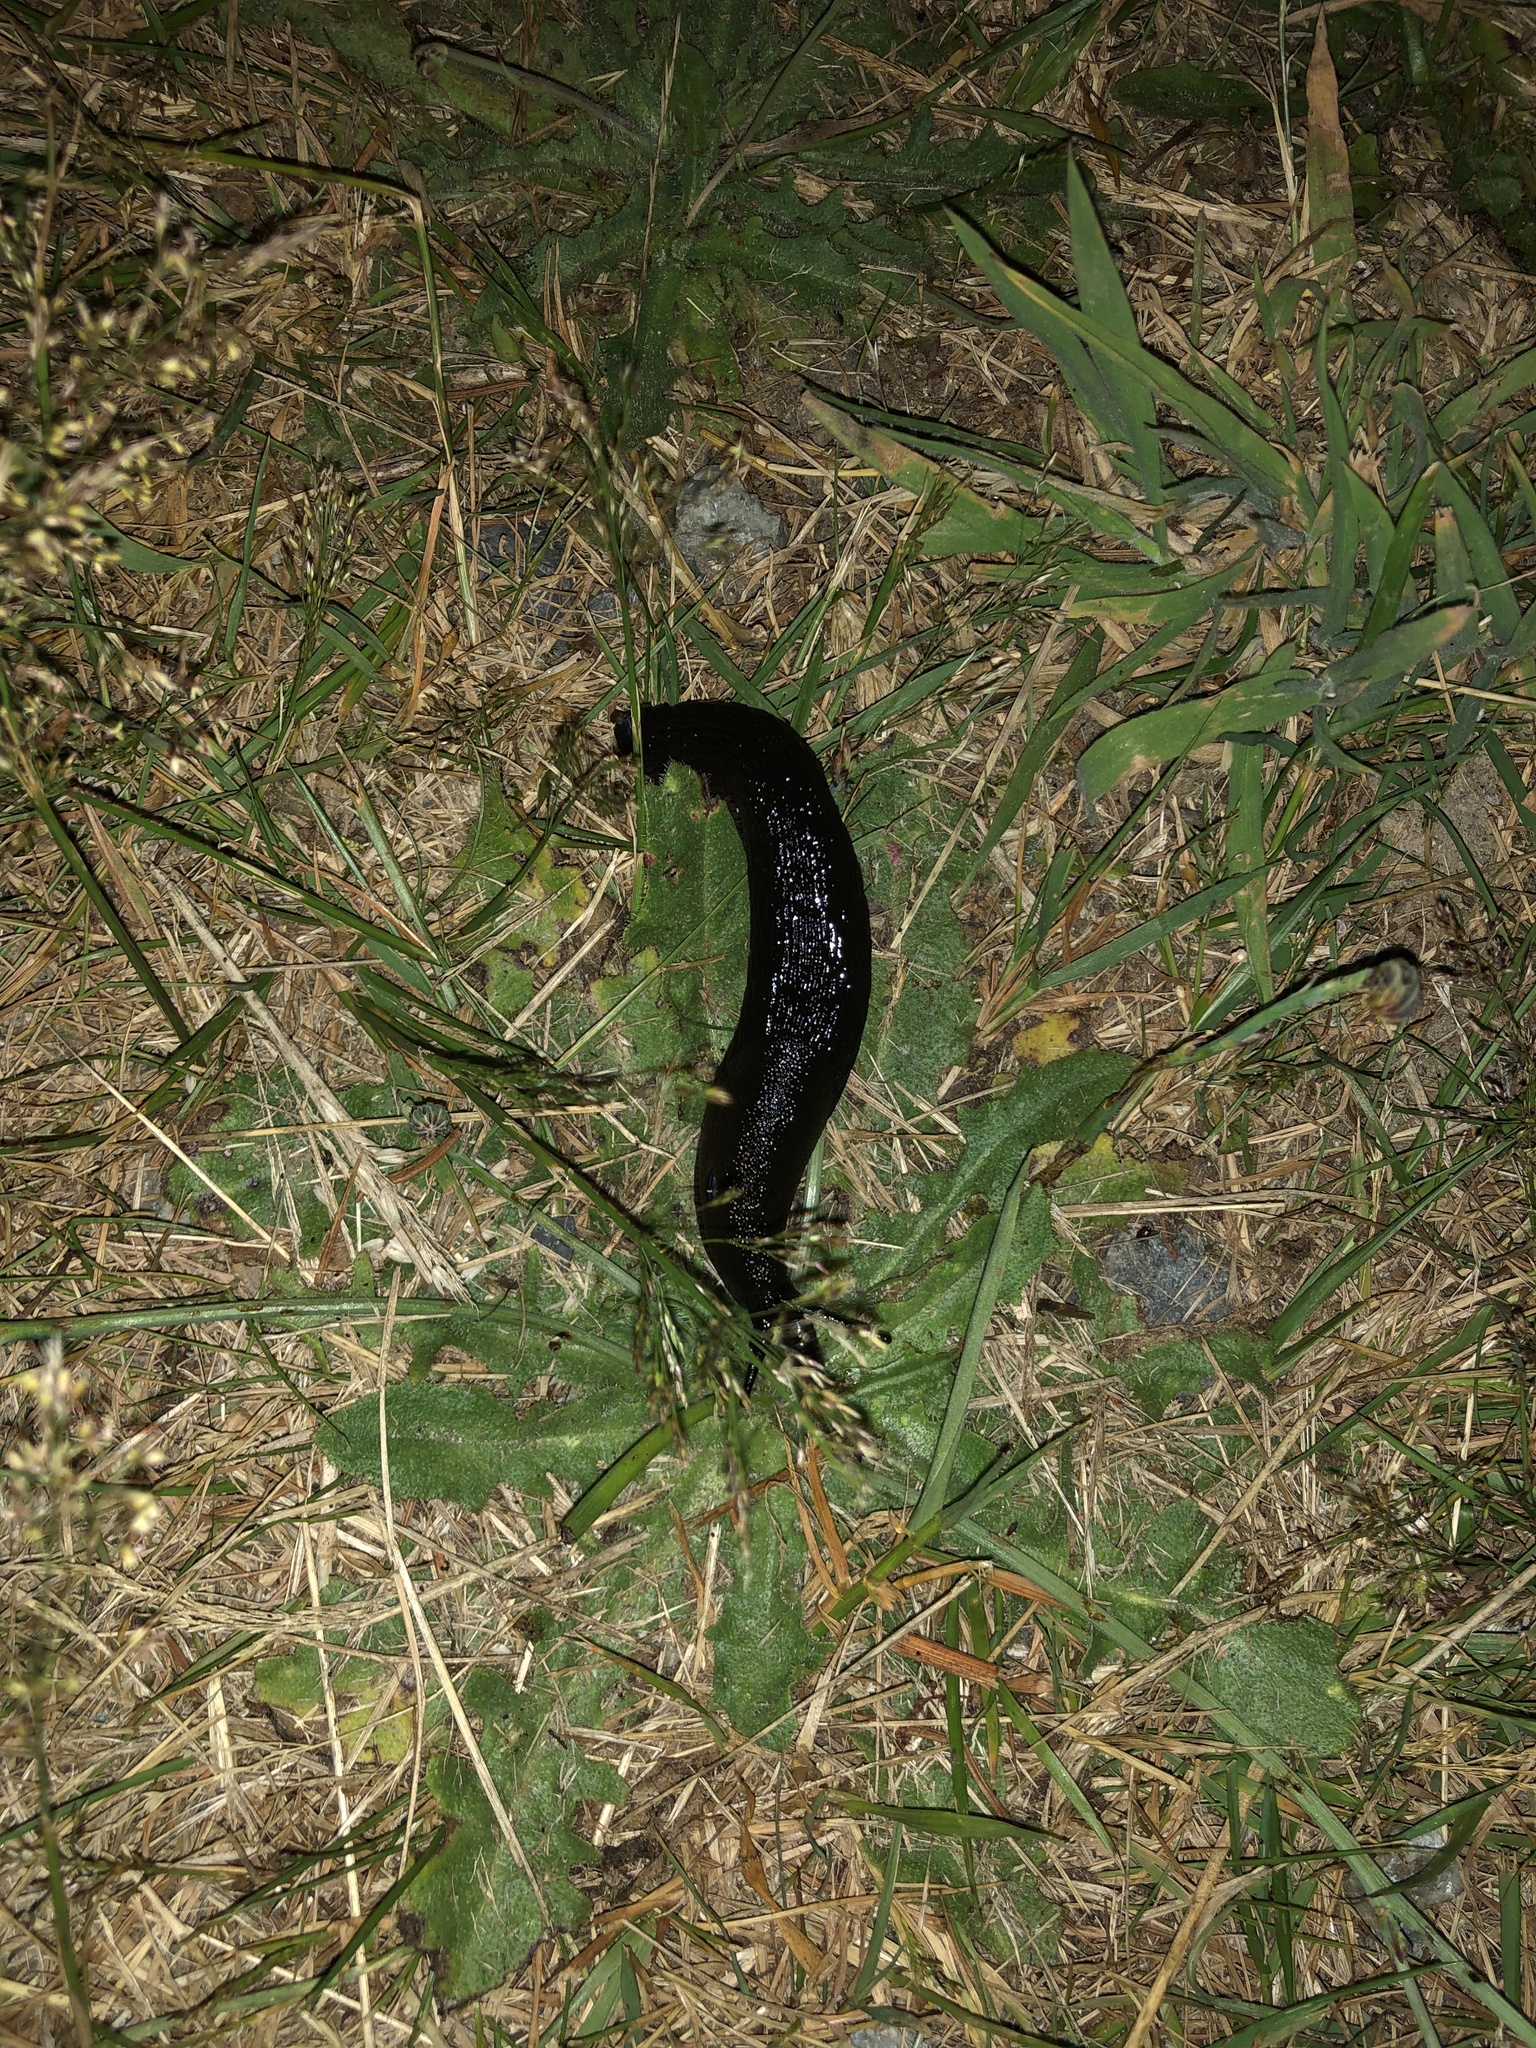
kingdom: Animalia
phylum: Mollusca
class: Gastropoda
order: Stylommatophora
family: Arionidae
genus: Arion
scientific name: Arion rufus
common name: Chocolate arion
